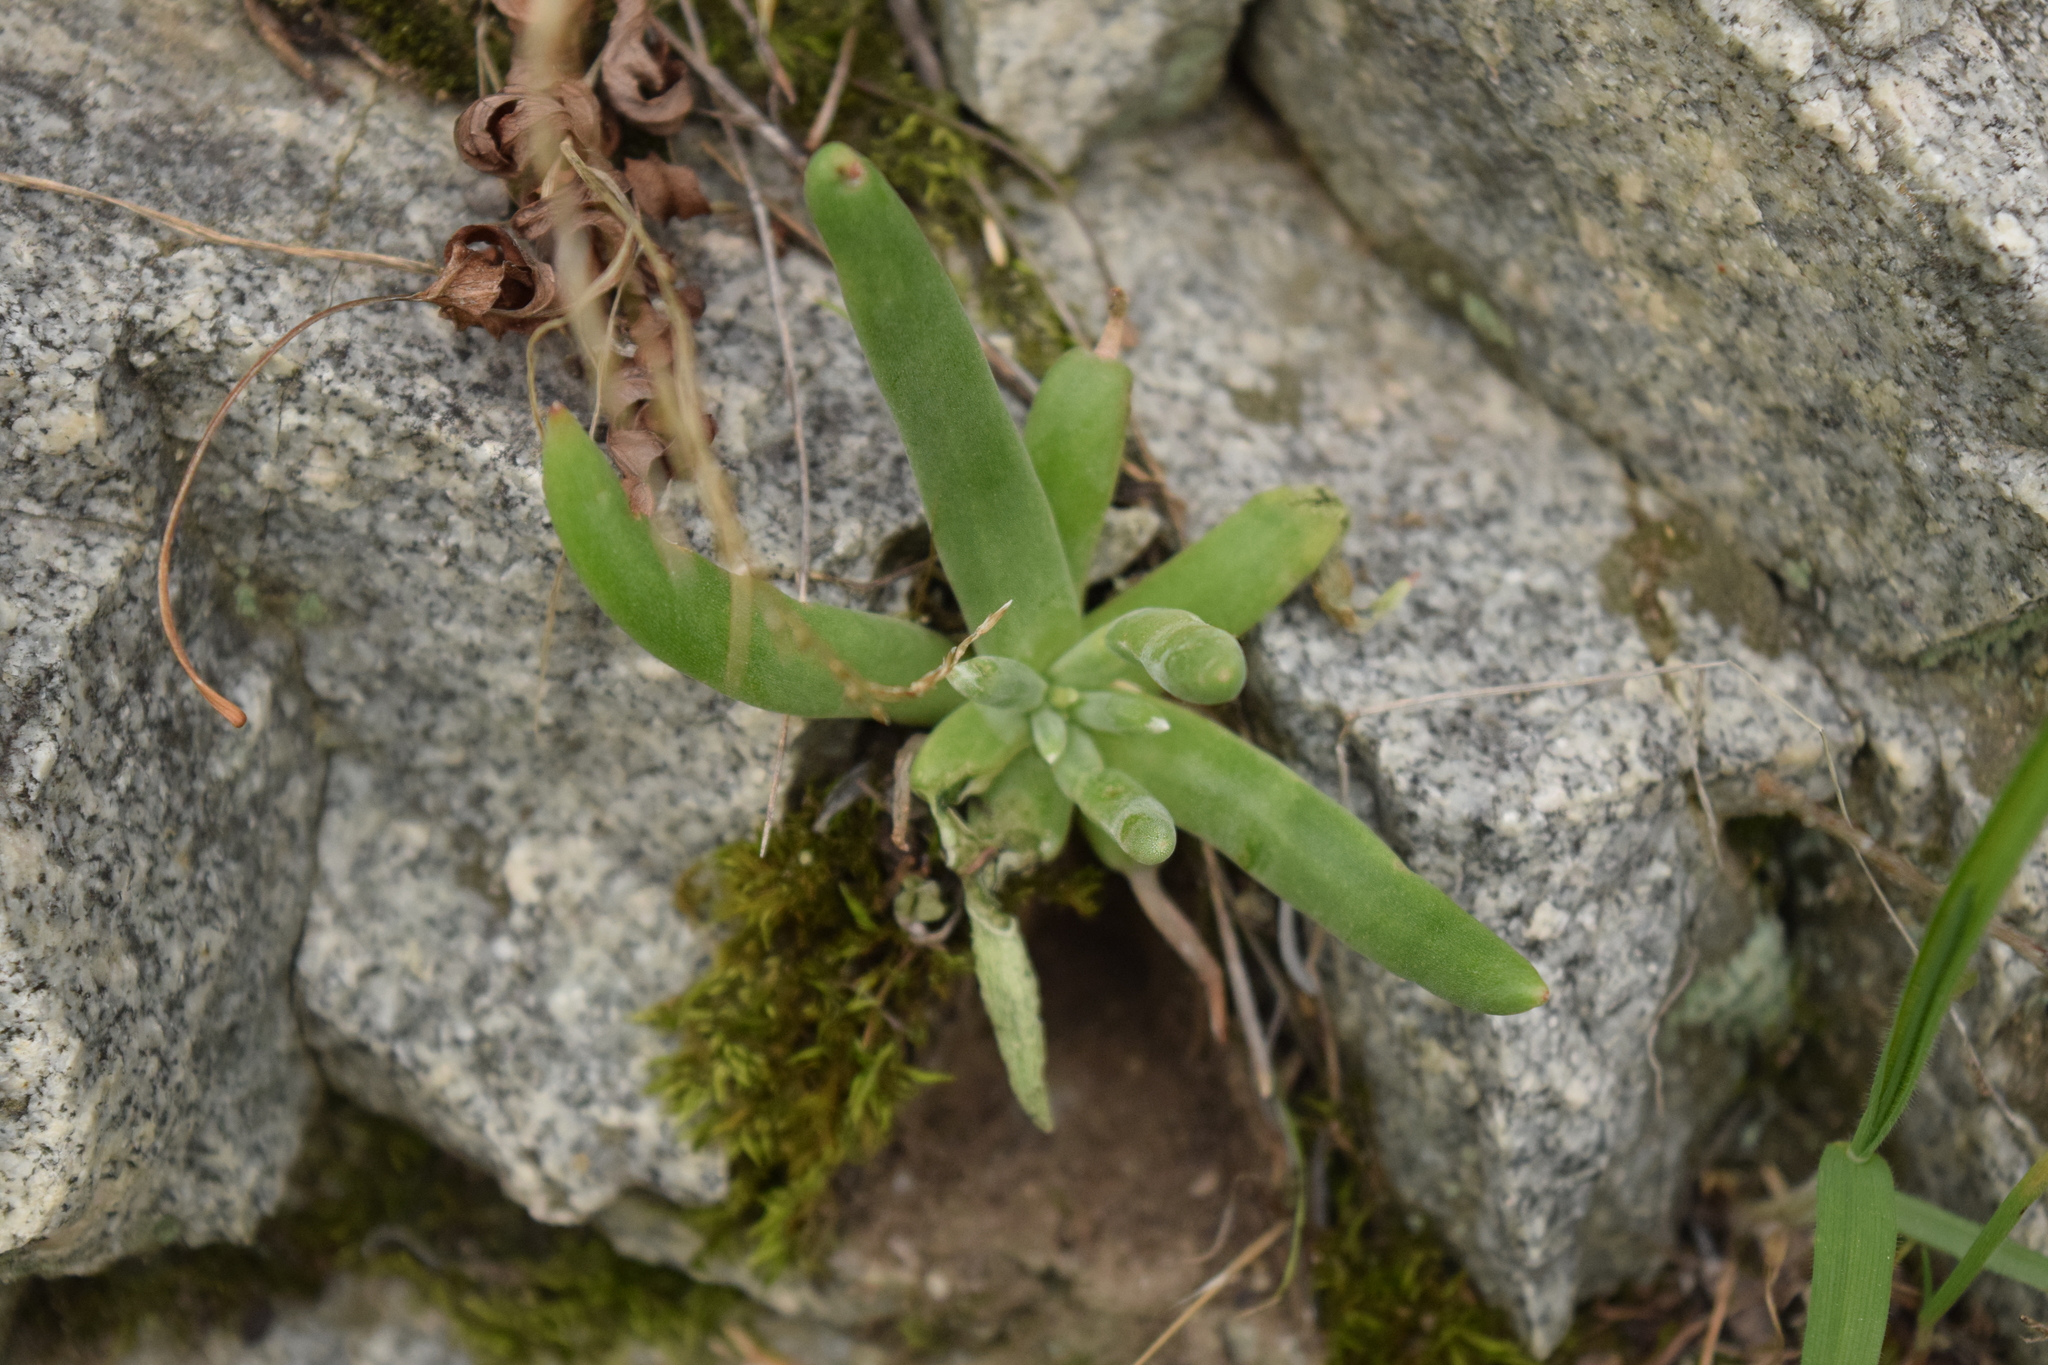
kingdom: Plantae
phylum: Tracheophyta
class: Magnoliopsida
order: Saxifragales
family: Crassulaceae
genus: Dudleya
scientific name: Dudleya densiflora
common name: San gabriel mountains dudleya
